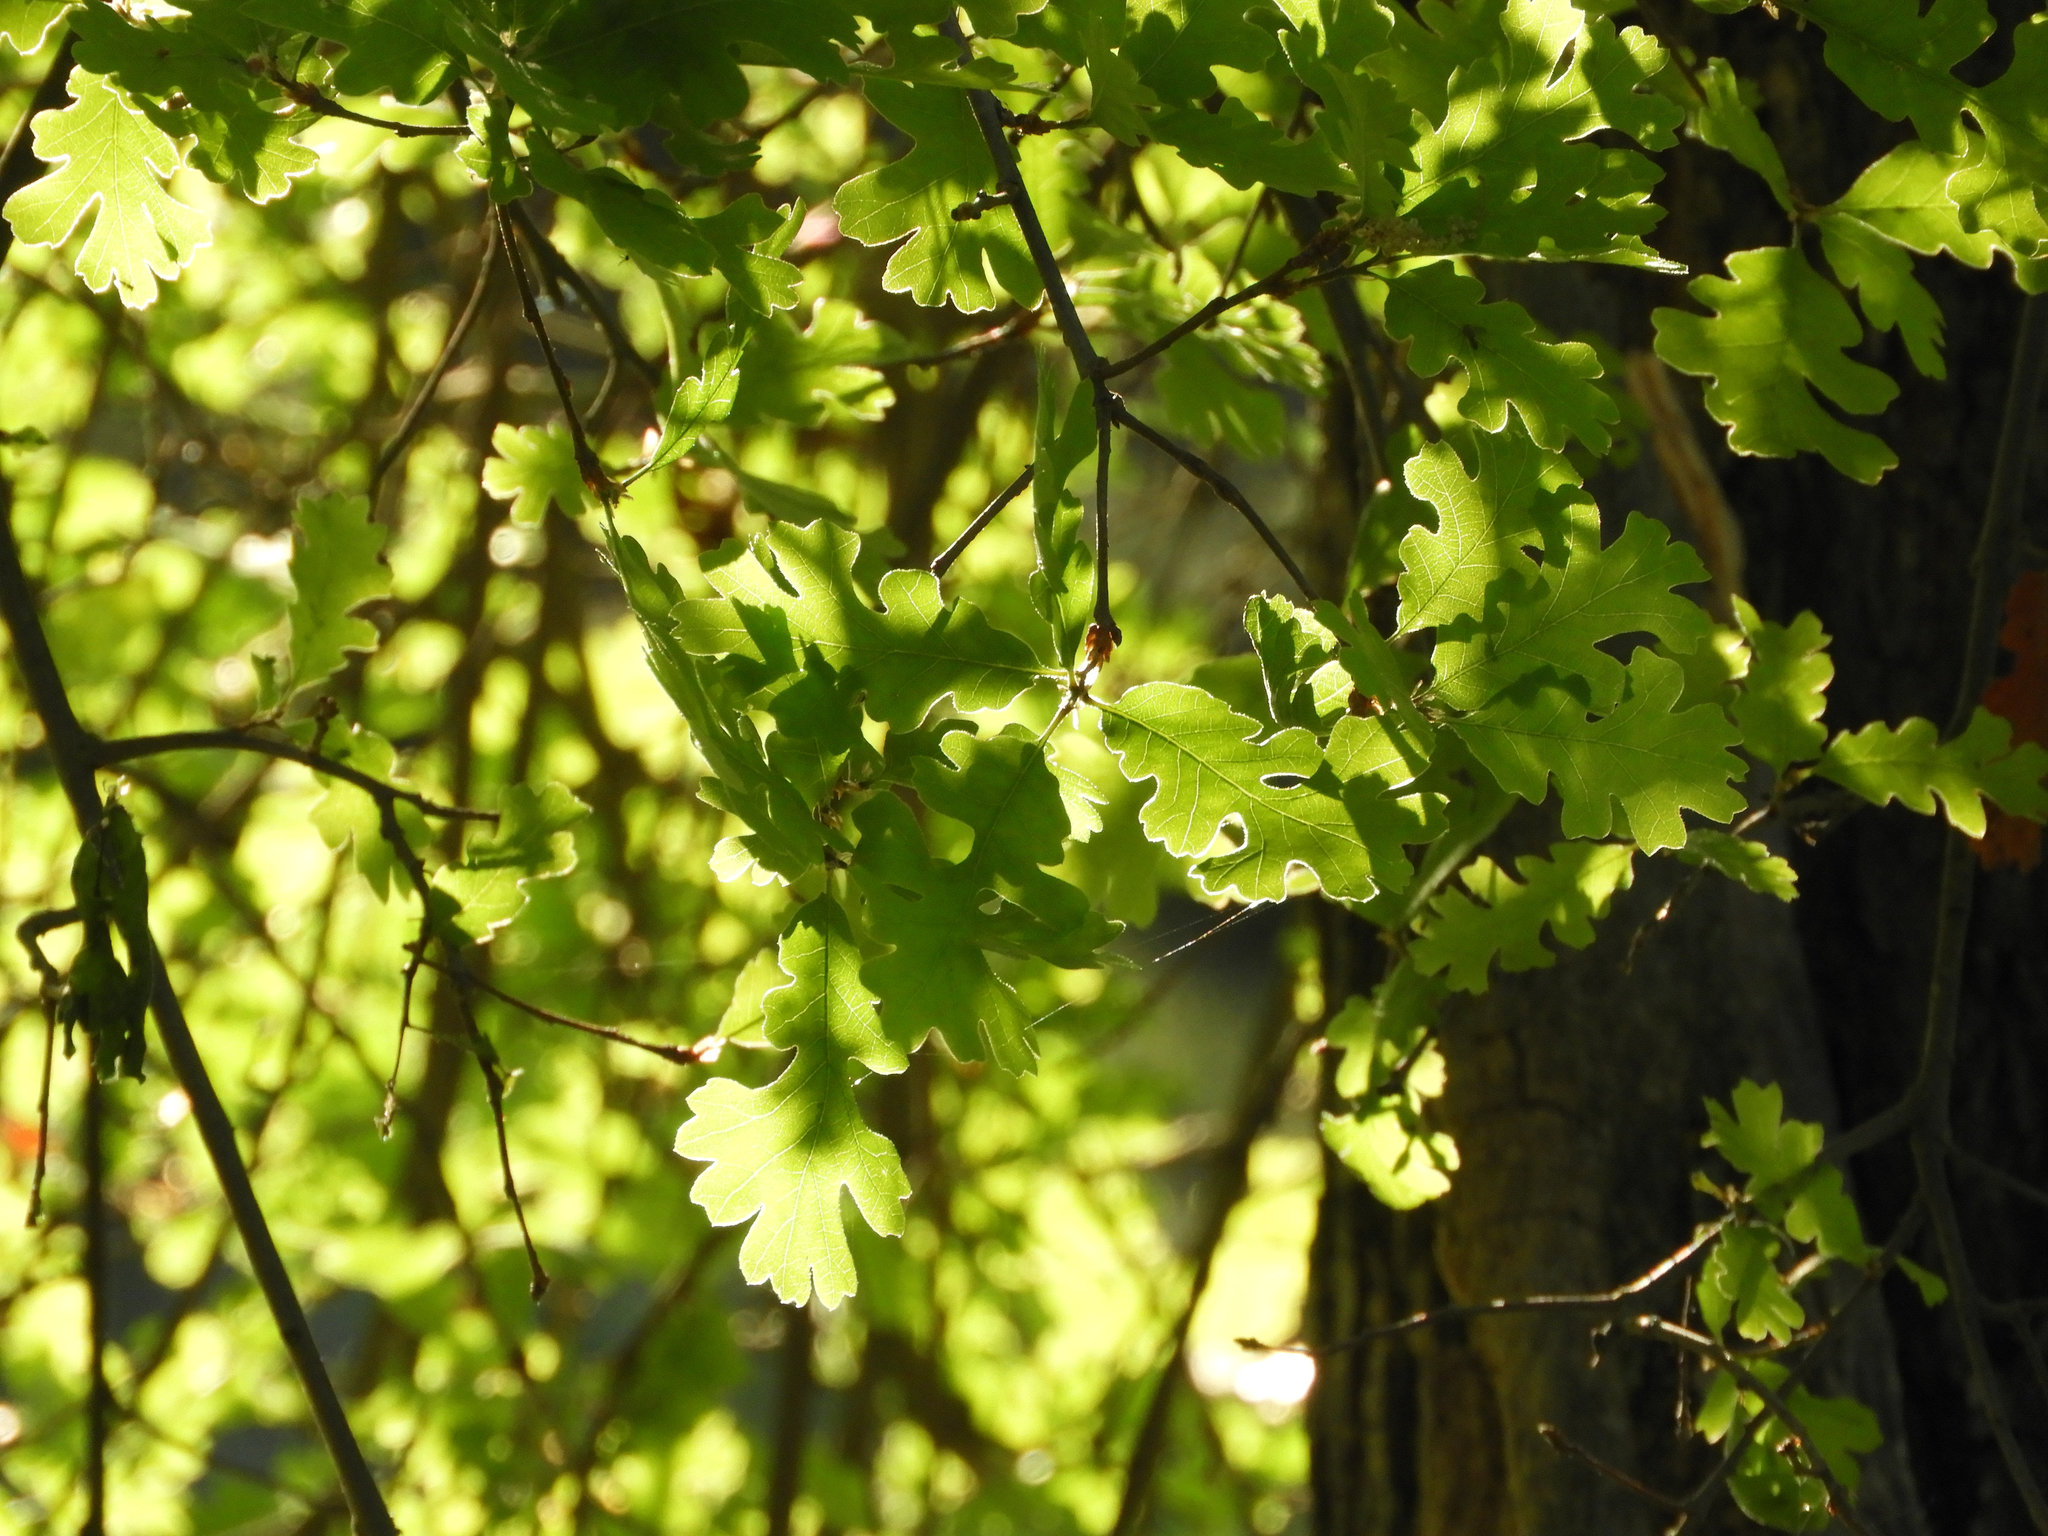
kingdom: Plantae
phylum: Tracheophyta
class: Magnoliopsida
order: Fagales
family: Fagaceae
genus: Quercus
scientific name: Quercus lobata
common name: Valley oak
